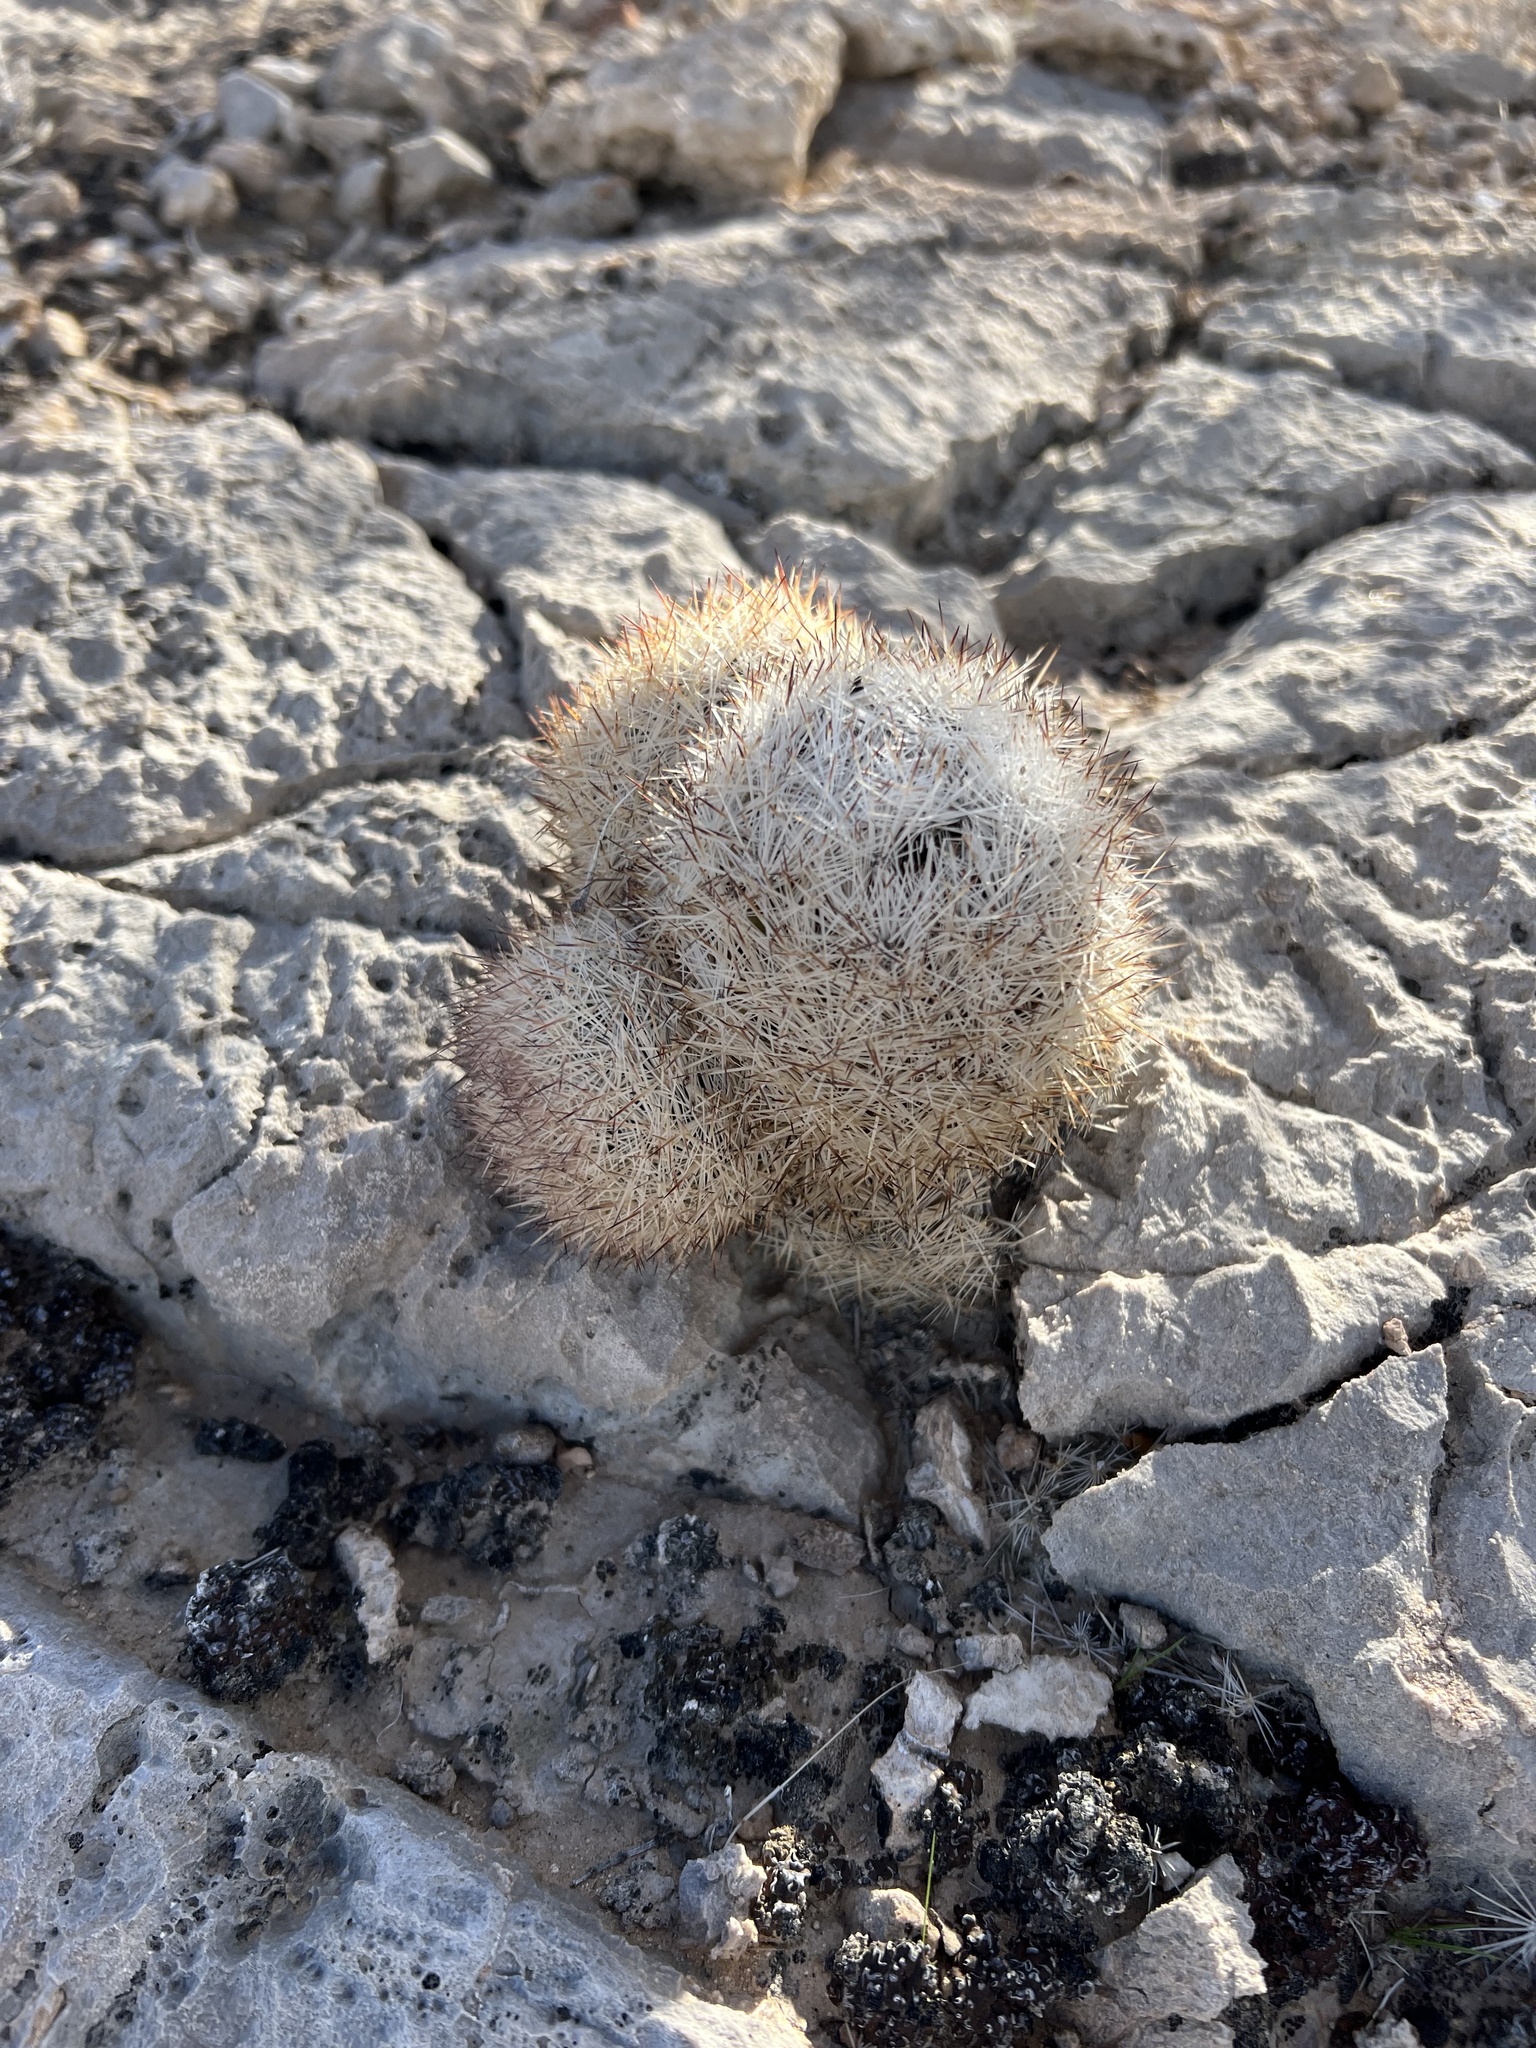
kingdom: Plantae
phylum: Tracheophyta
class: Magnoliopsida
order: Caryophyllales
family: Cactaceae
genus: Pelecyphora
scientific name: Pelecyphora dasyacantha
